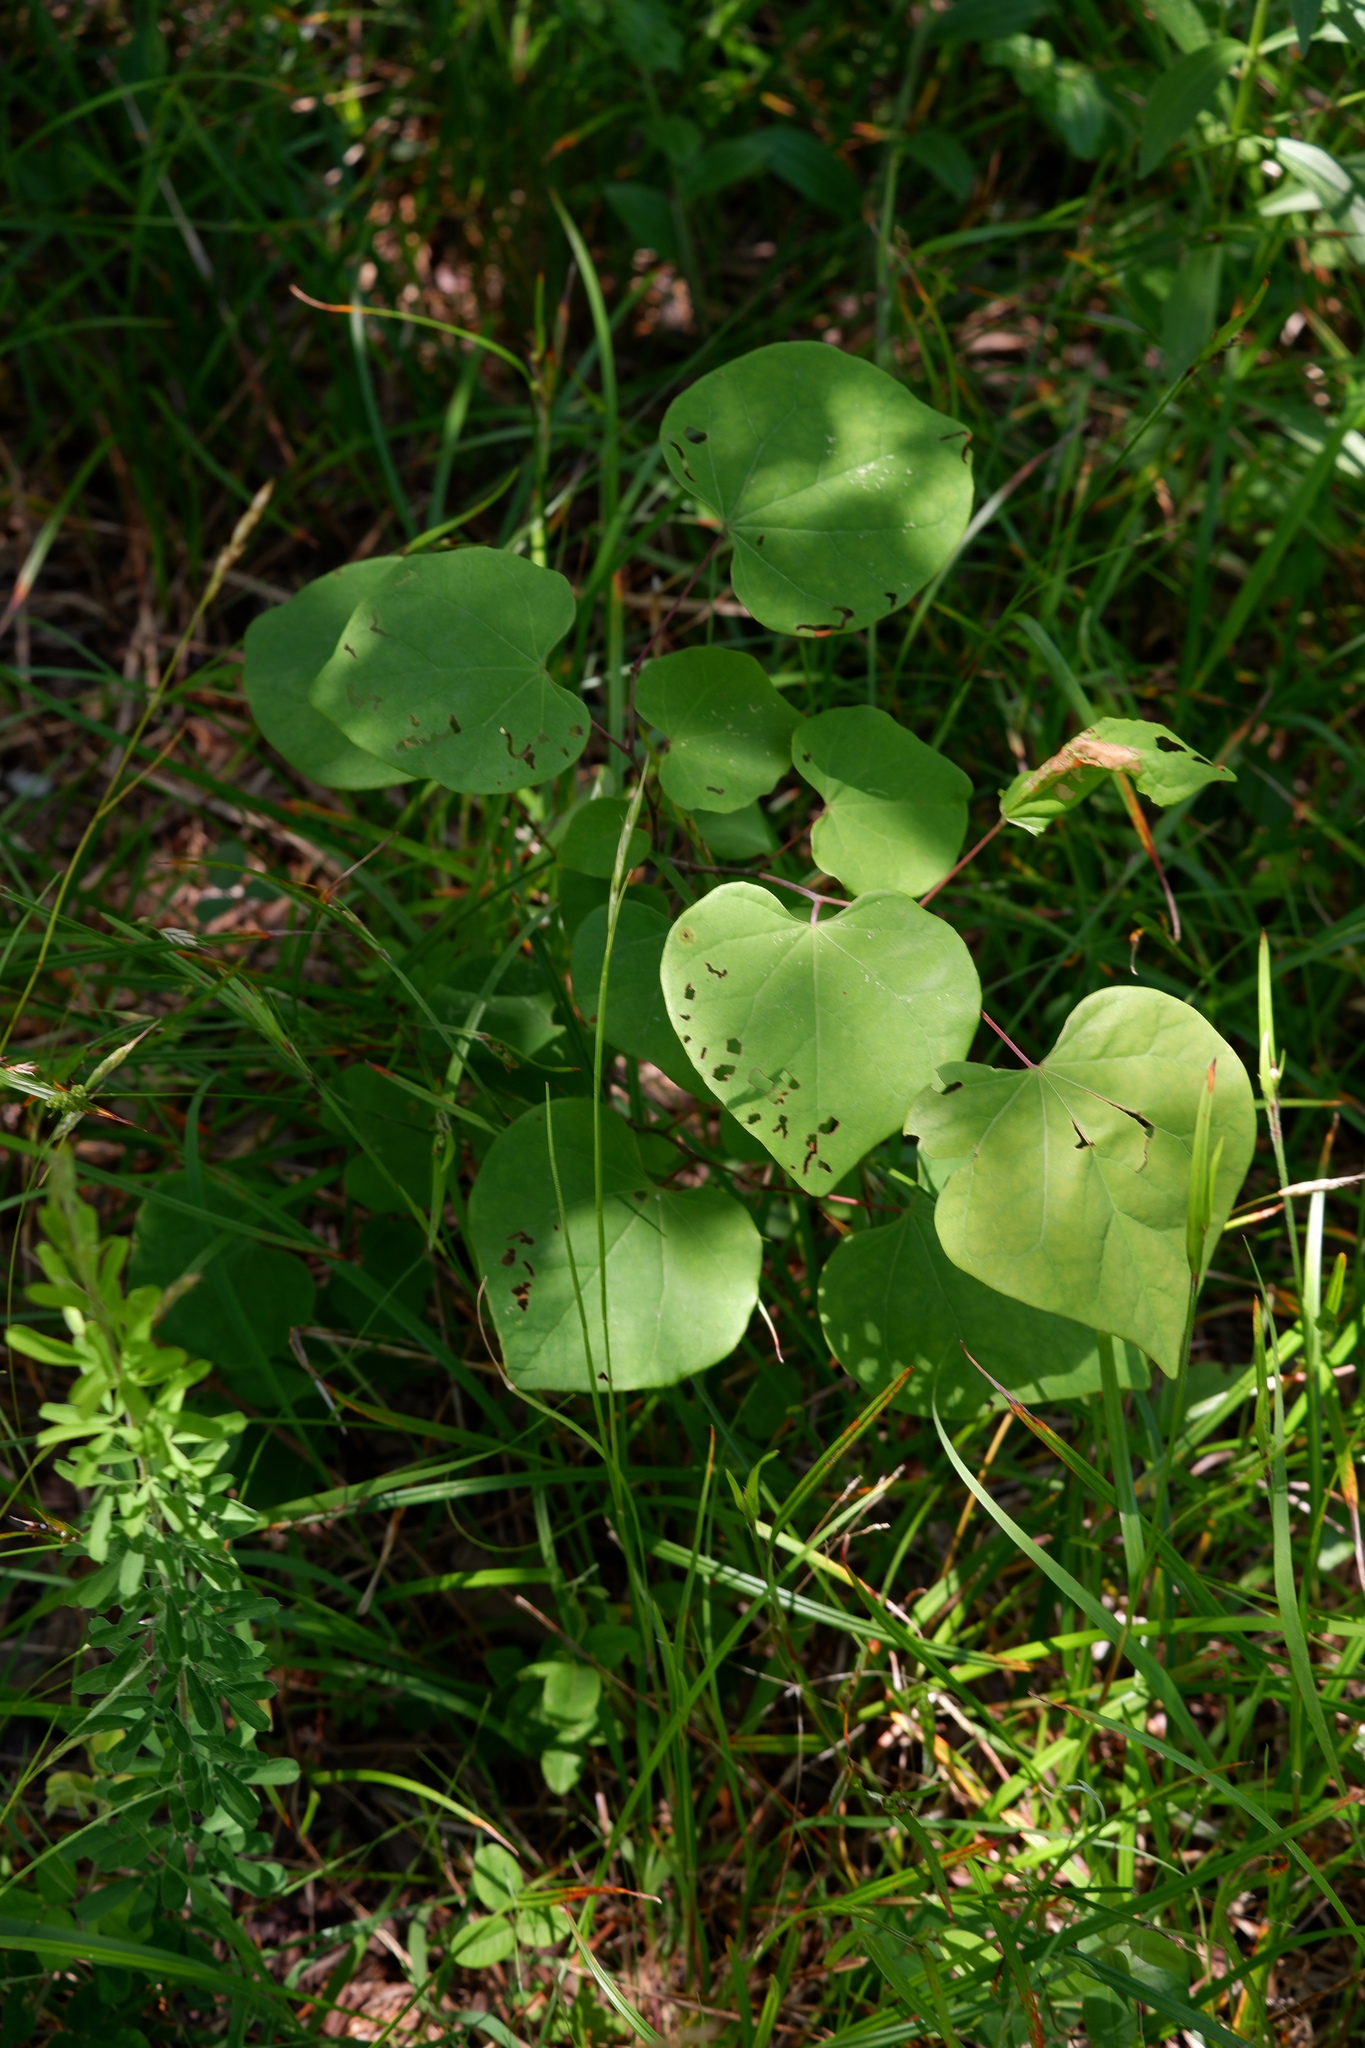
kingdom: Plantae
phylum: Tracheophyta
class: Magnoliopsida
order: Fabales
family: Fabaceae
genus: Cercis
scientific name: Cercis canadensis
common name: Eastern redbud
